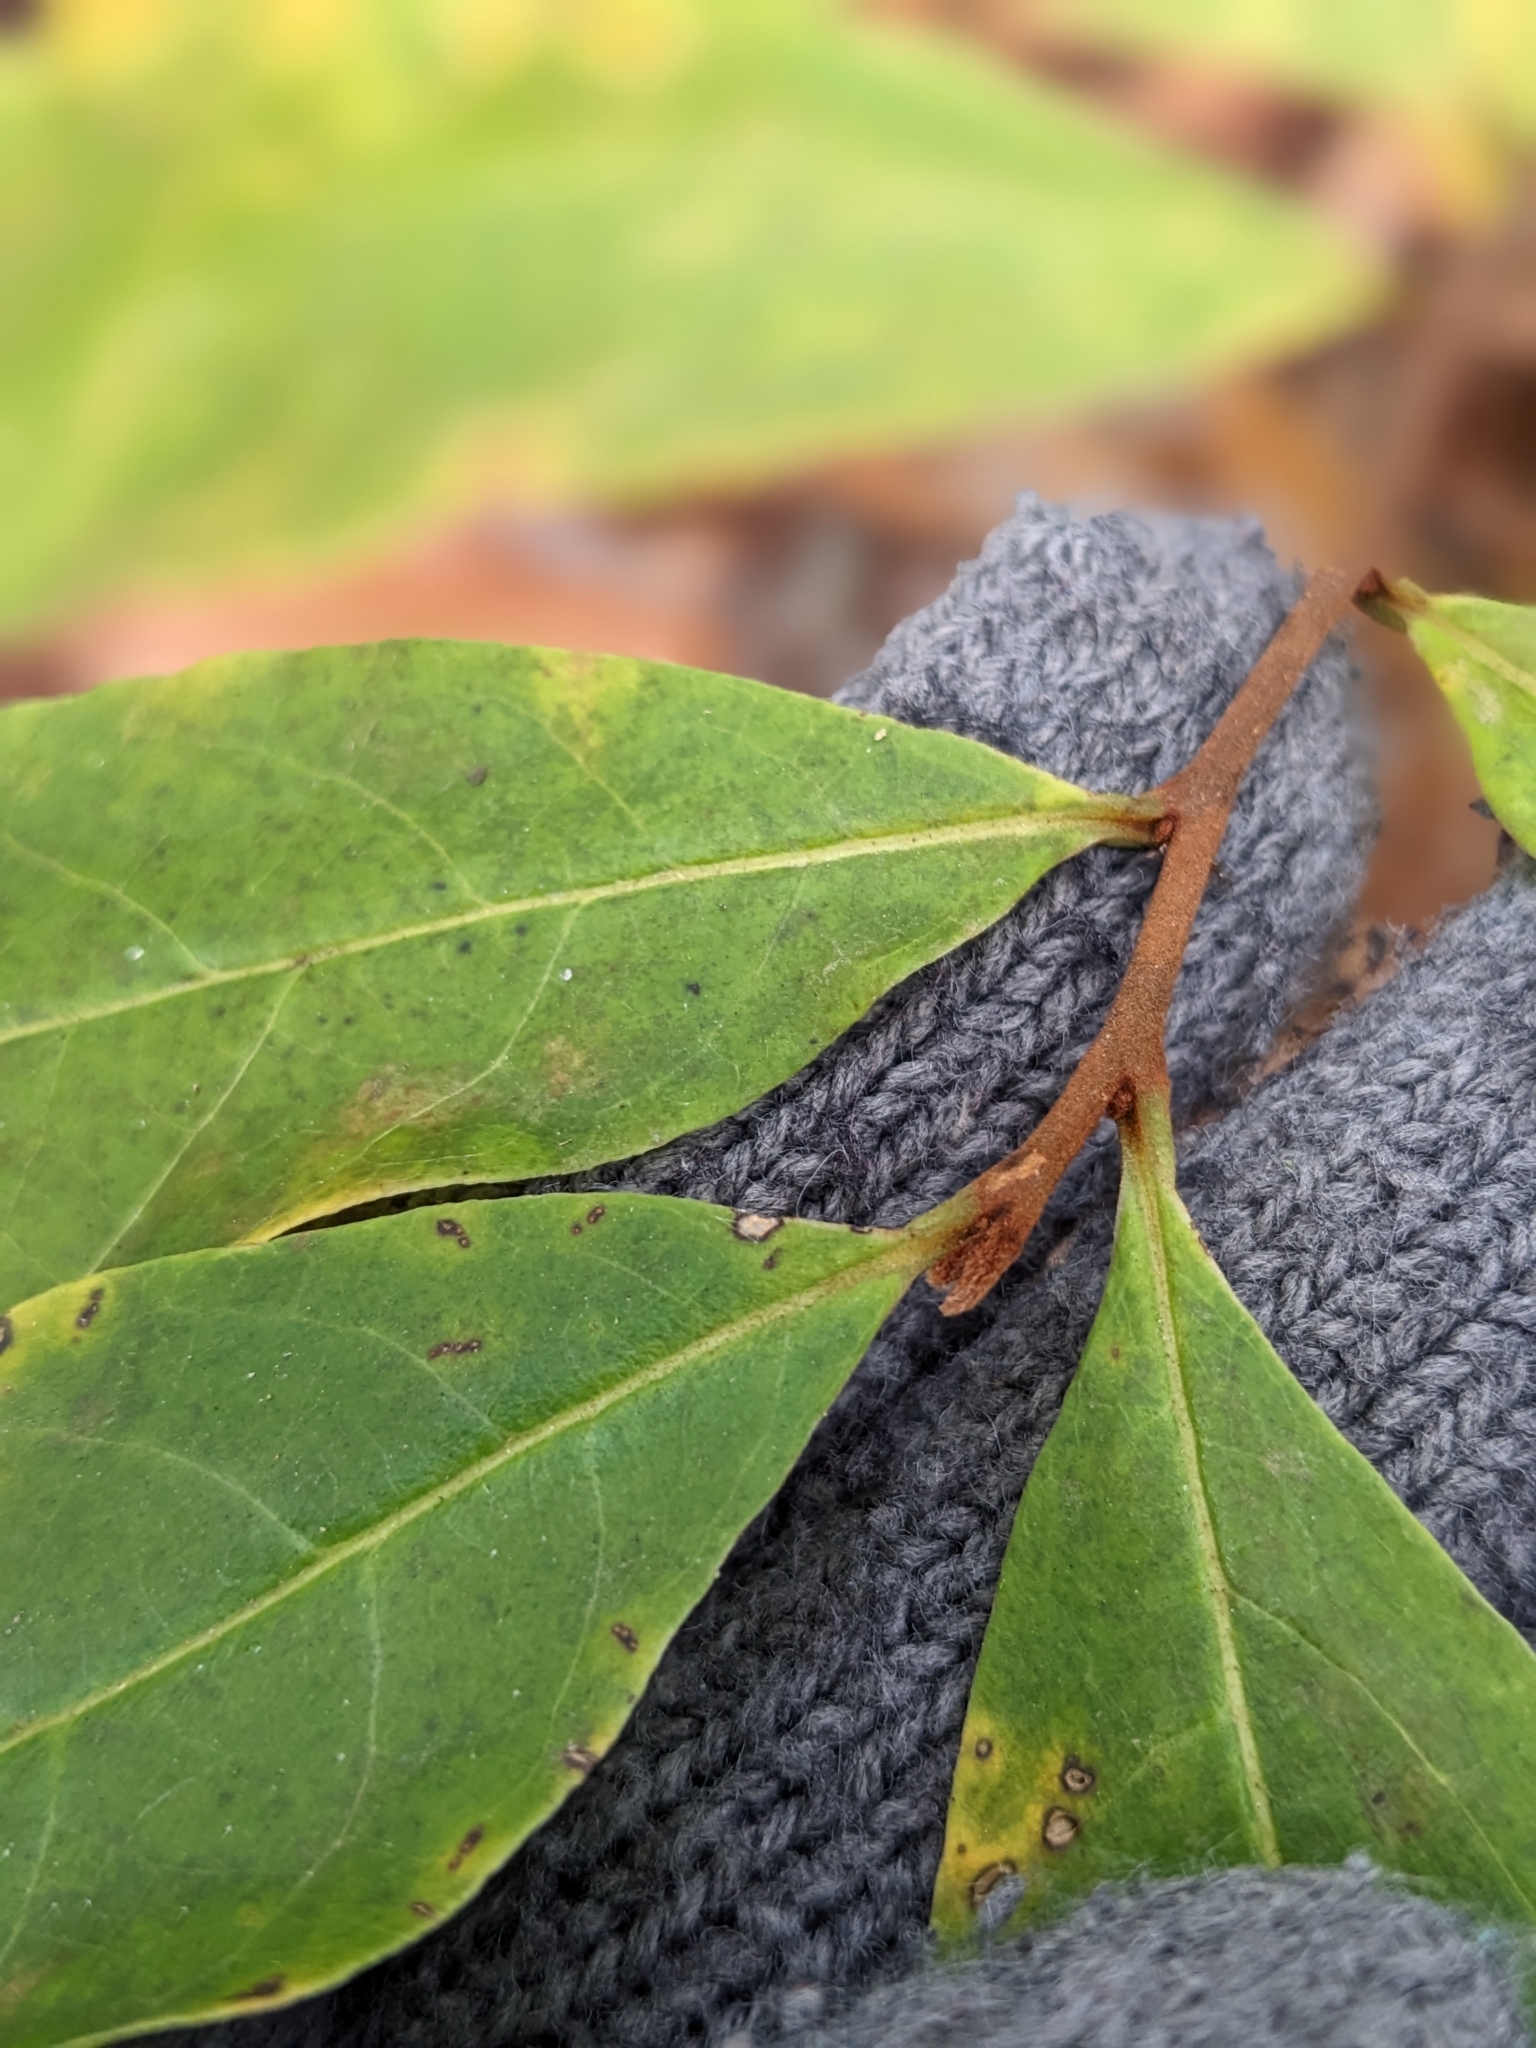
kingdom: Plantae
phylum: Tracheophyta
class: Magnoliopsida
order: Magnoliales
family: Annonaceae
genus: Asimina
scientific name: Asimina parviflora
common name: Dwarf pawpaw
